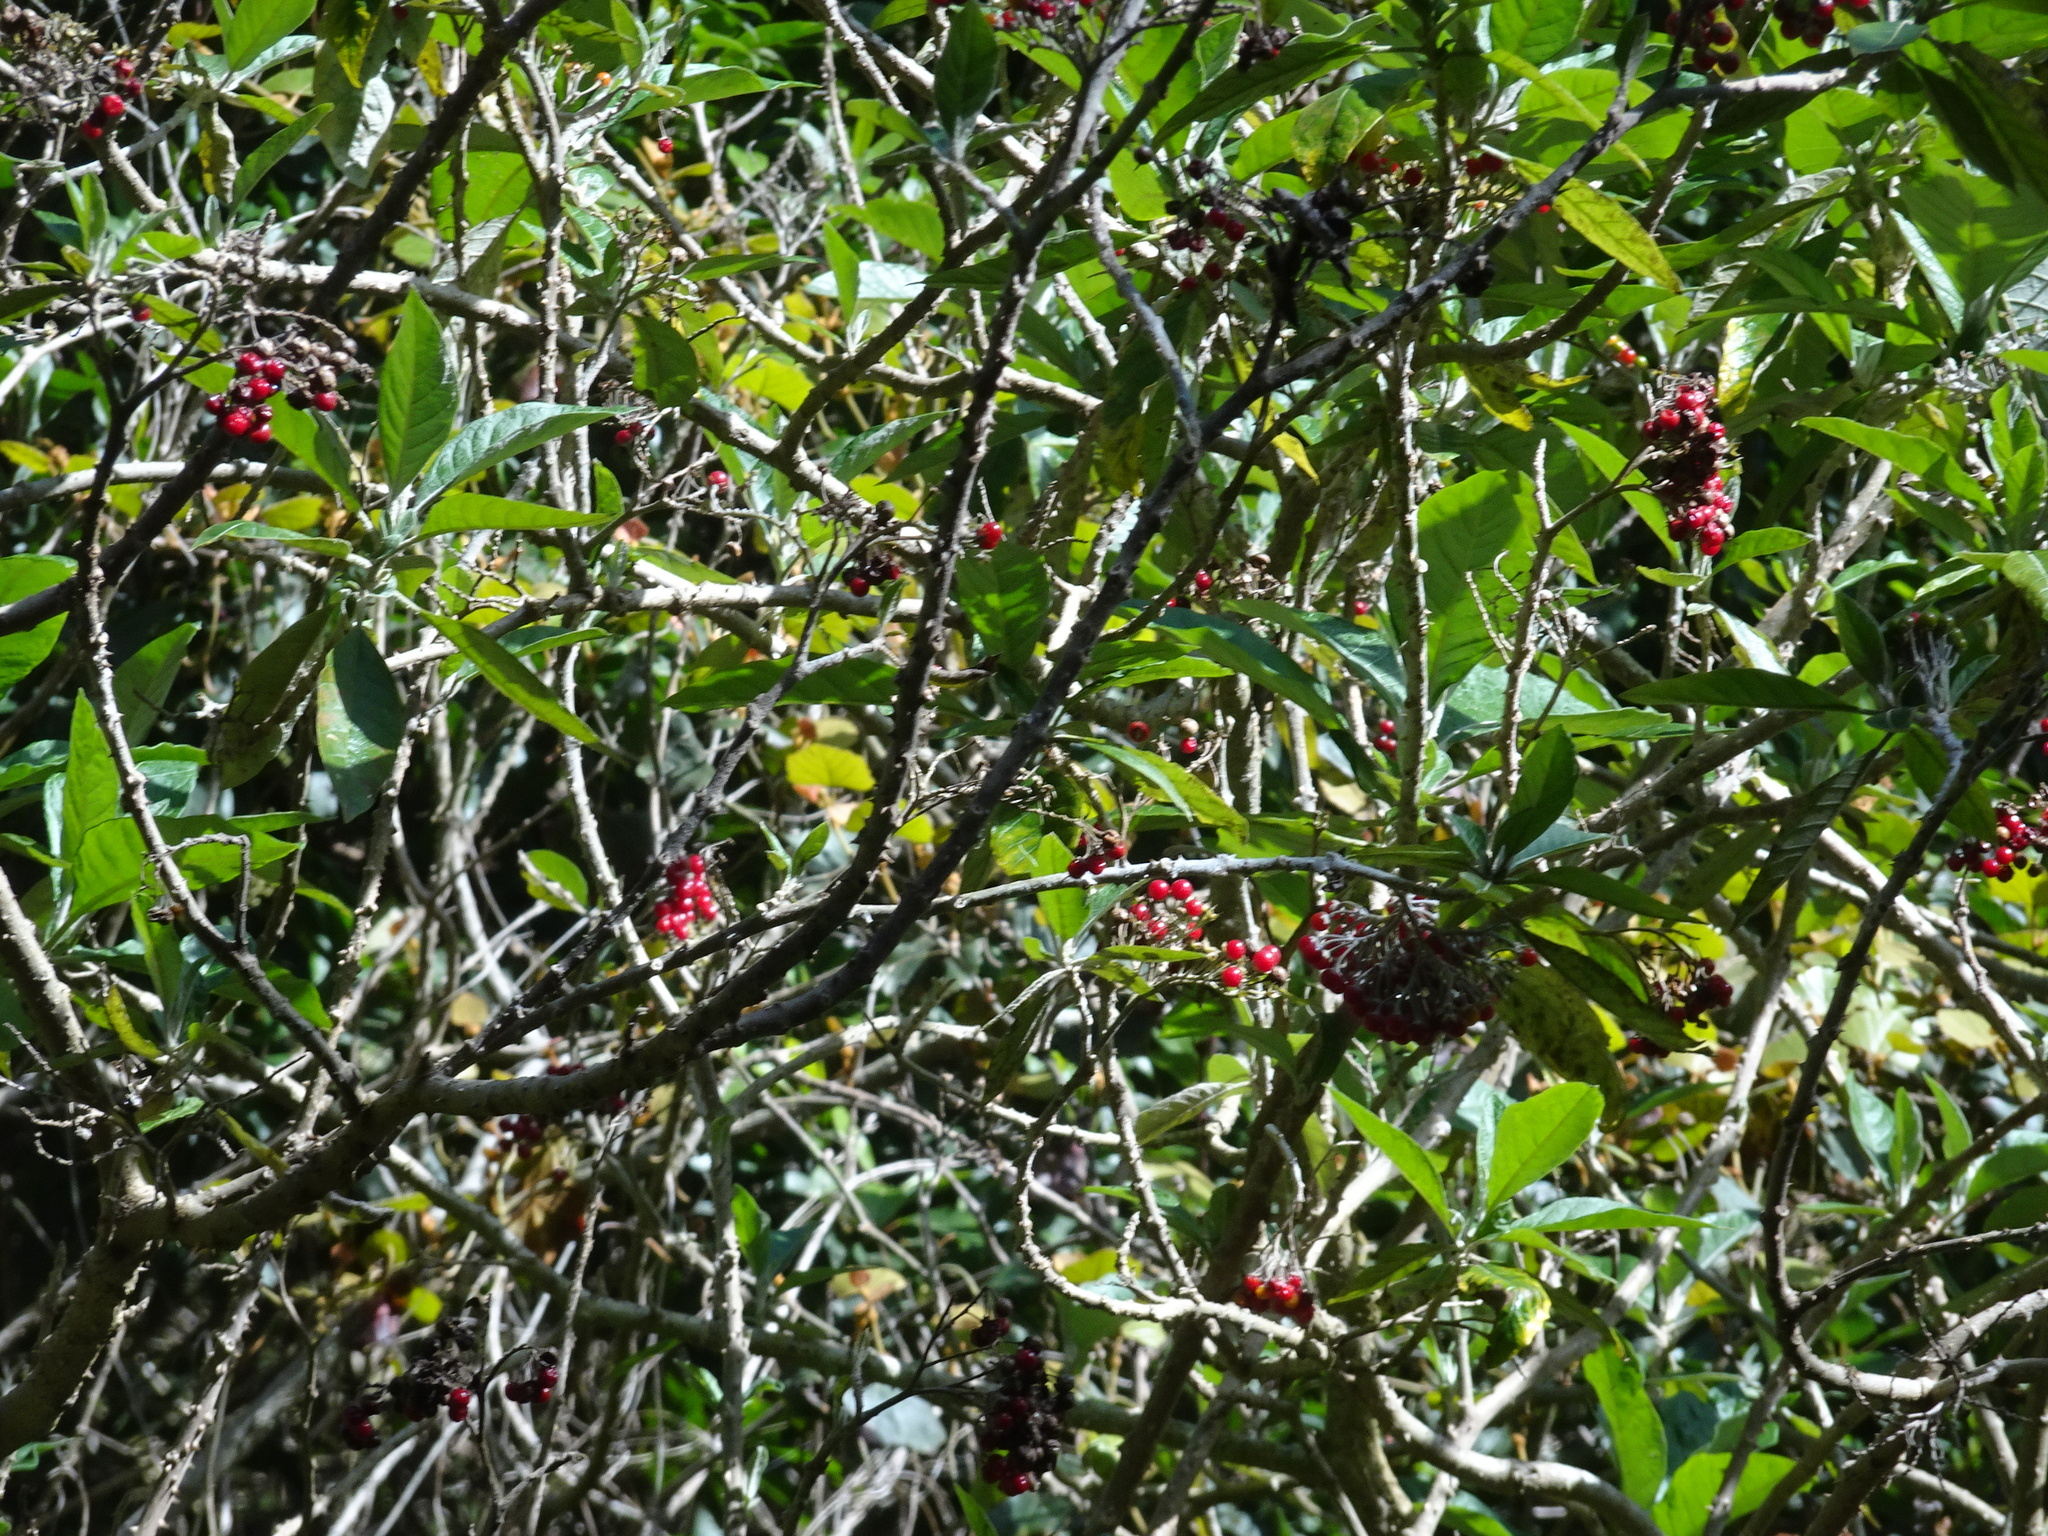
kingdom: Plantae
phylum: Tracheophyta
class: Magnoliopsida
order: Solanales
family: Solanaceae
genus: Solanum
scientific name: Solanum giganteum
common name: Healing-leaf-tree
